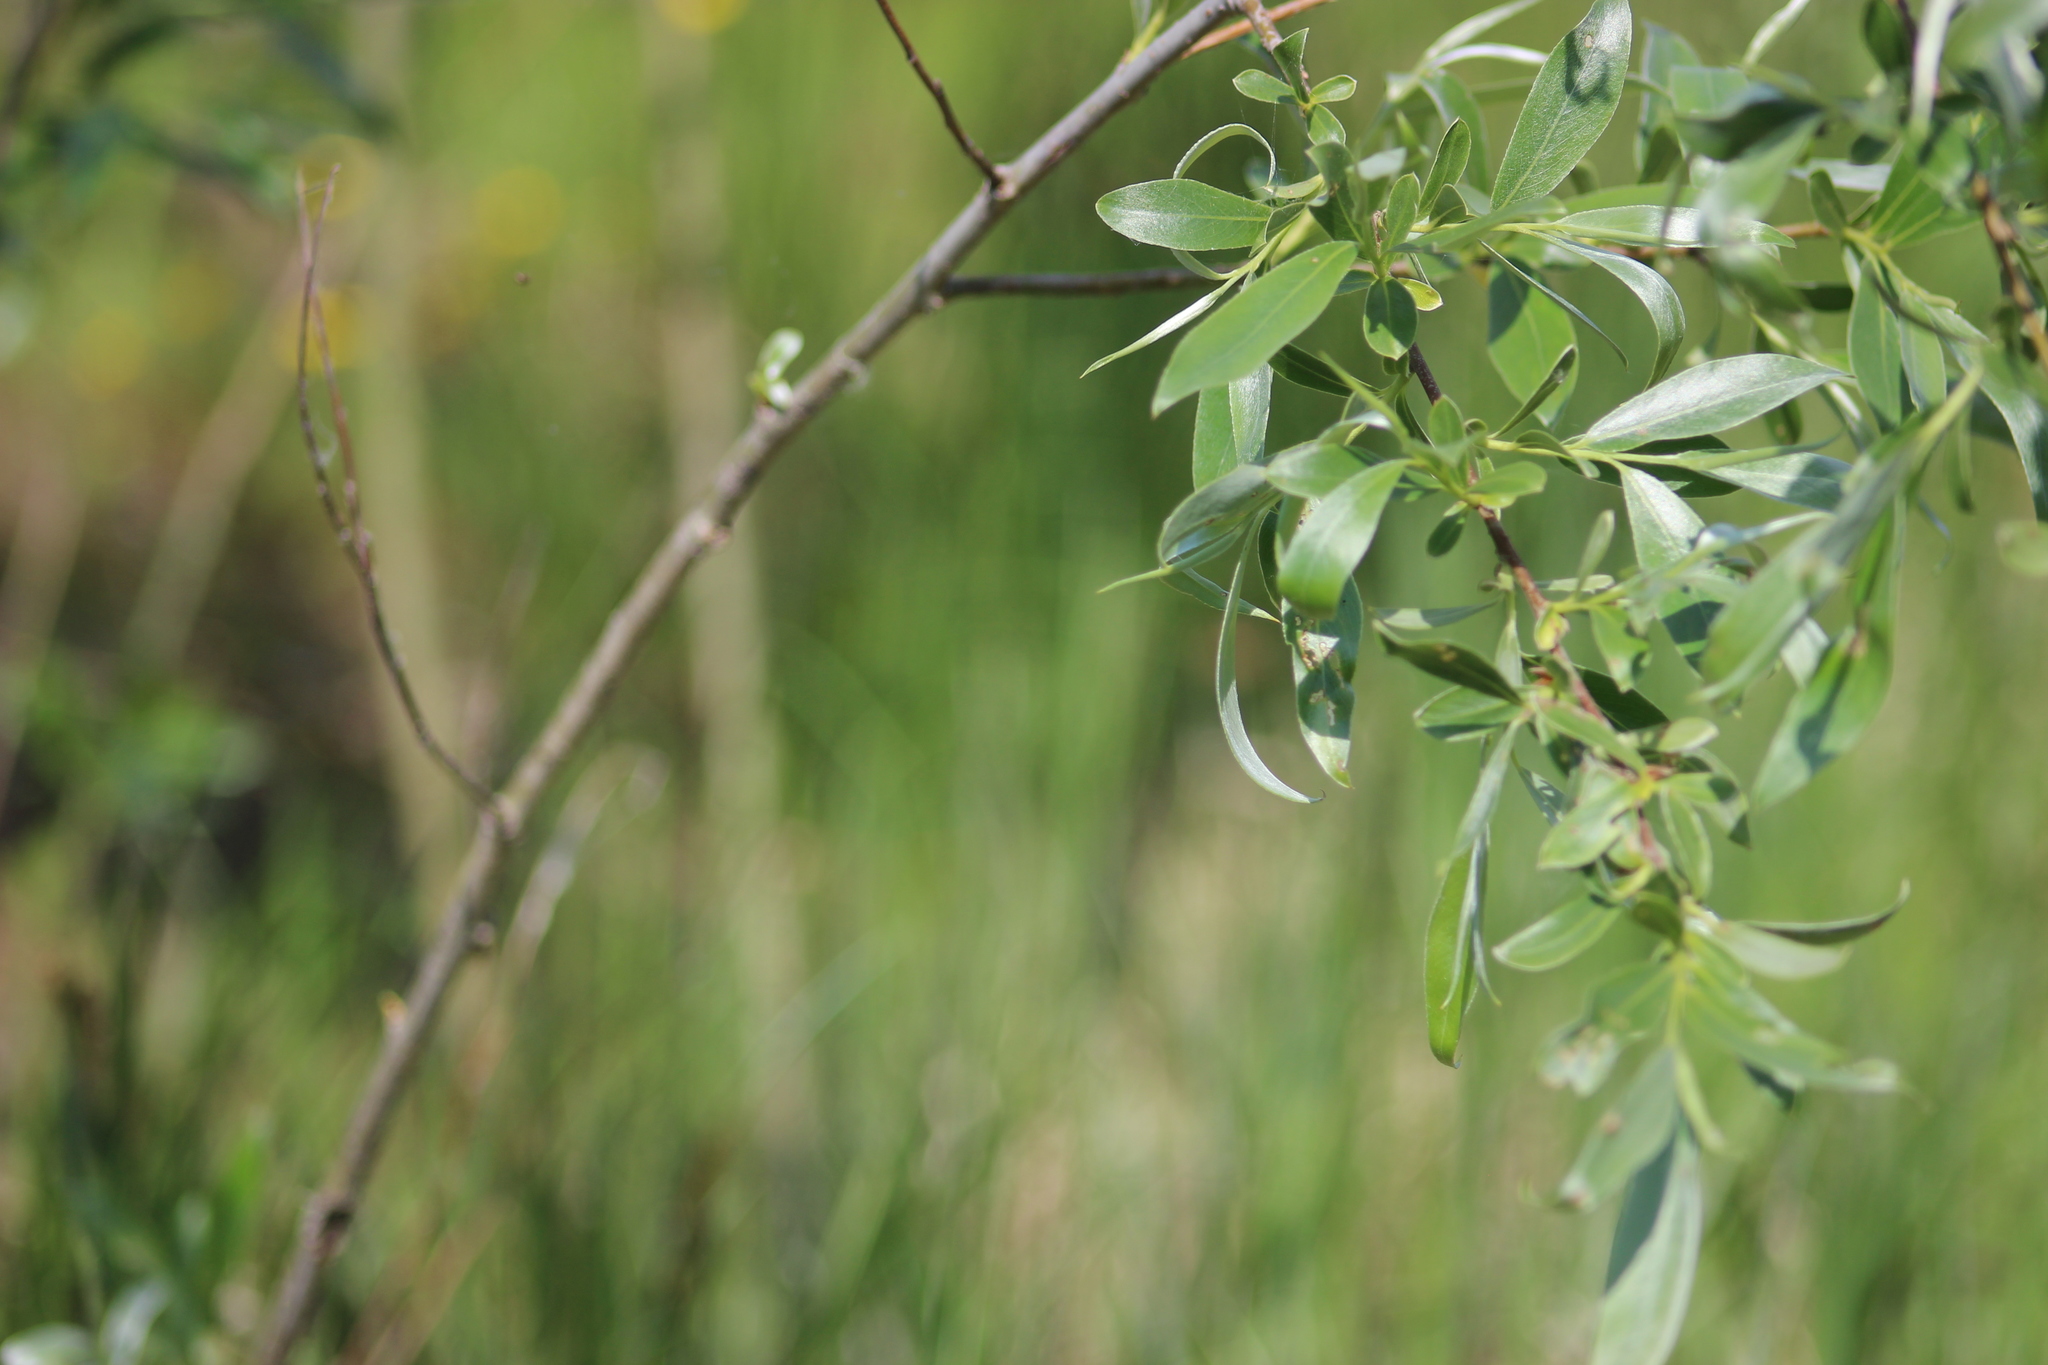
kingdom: Plantae
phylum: Tracheophyta
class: Magnoliopsida
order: Malpighiales
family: Salicaceae
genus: Salix
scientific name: Salix alba
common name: White willow
